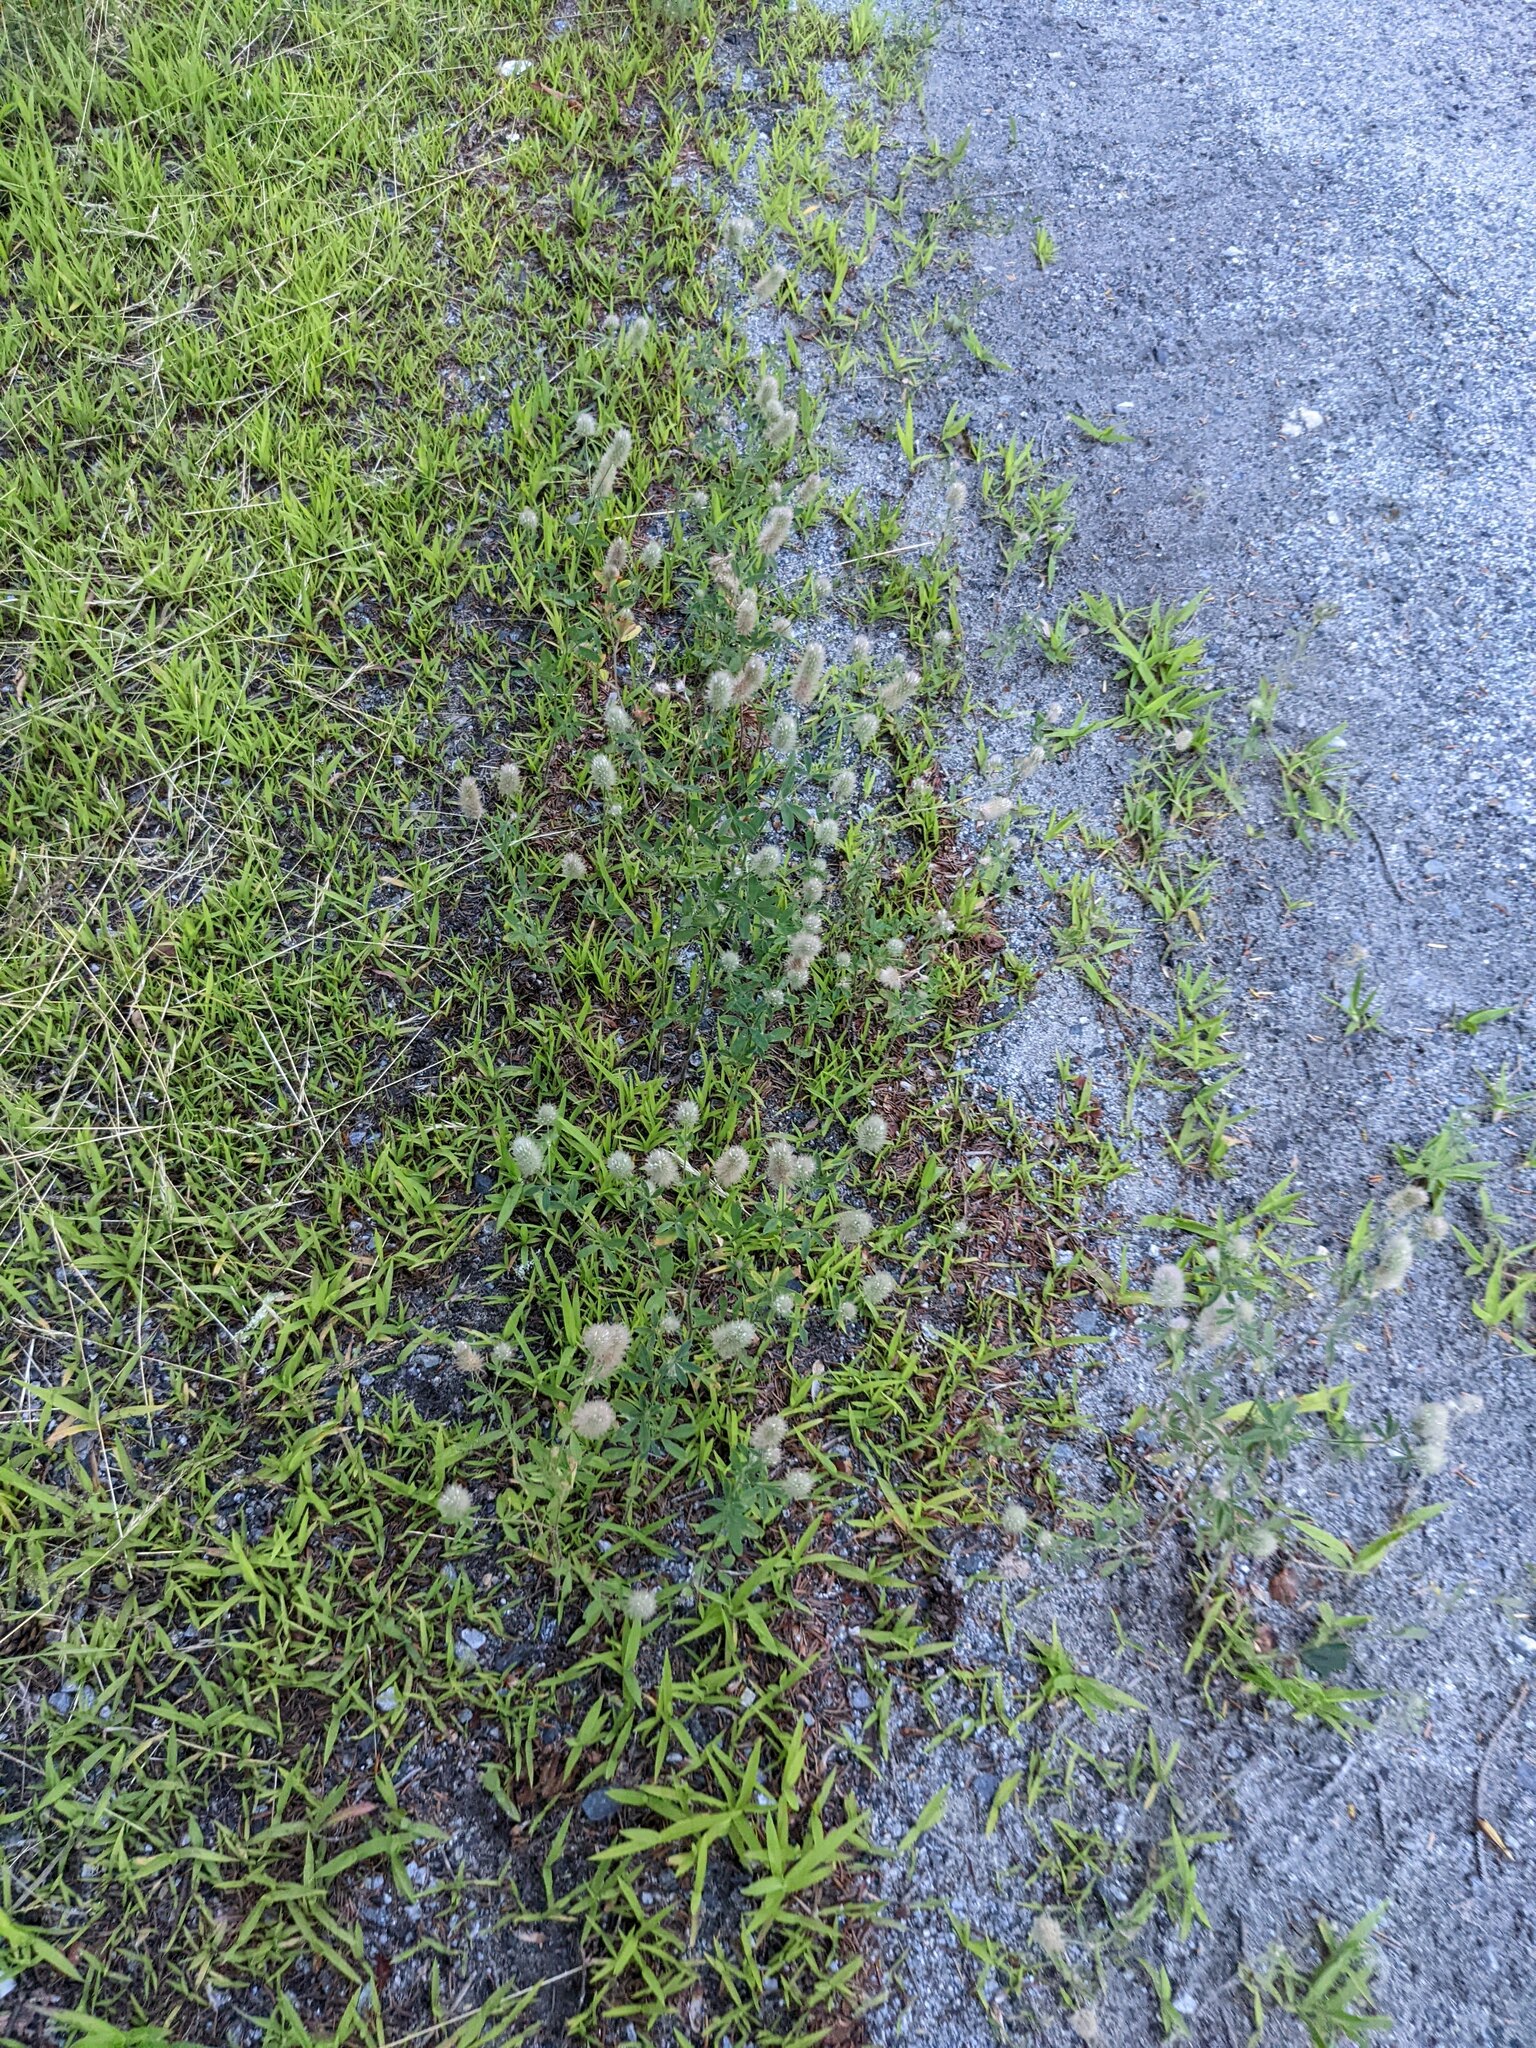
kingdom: Plantae
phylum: Tracheophyta
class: Magnoliopsida
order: Fabales
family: Fabaceae
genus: Trifolium
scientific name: Trifolium arvense
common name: Hare's-foot clover
